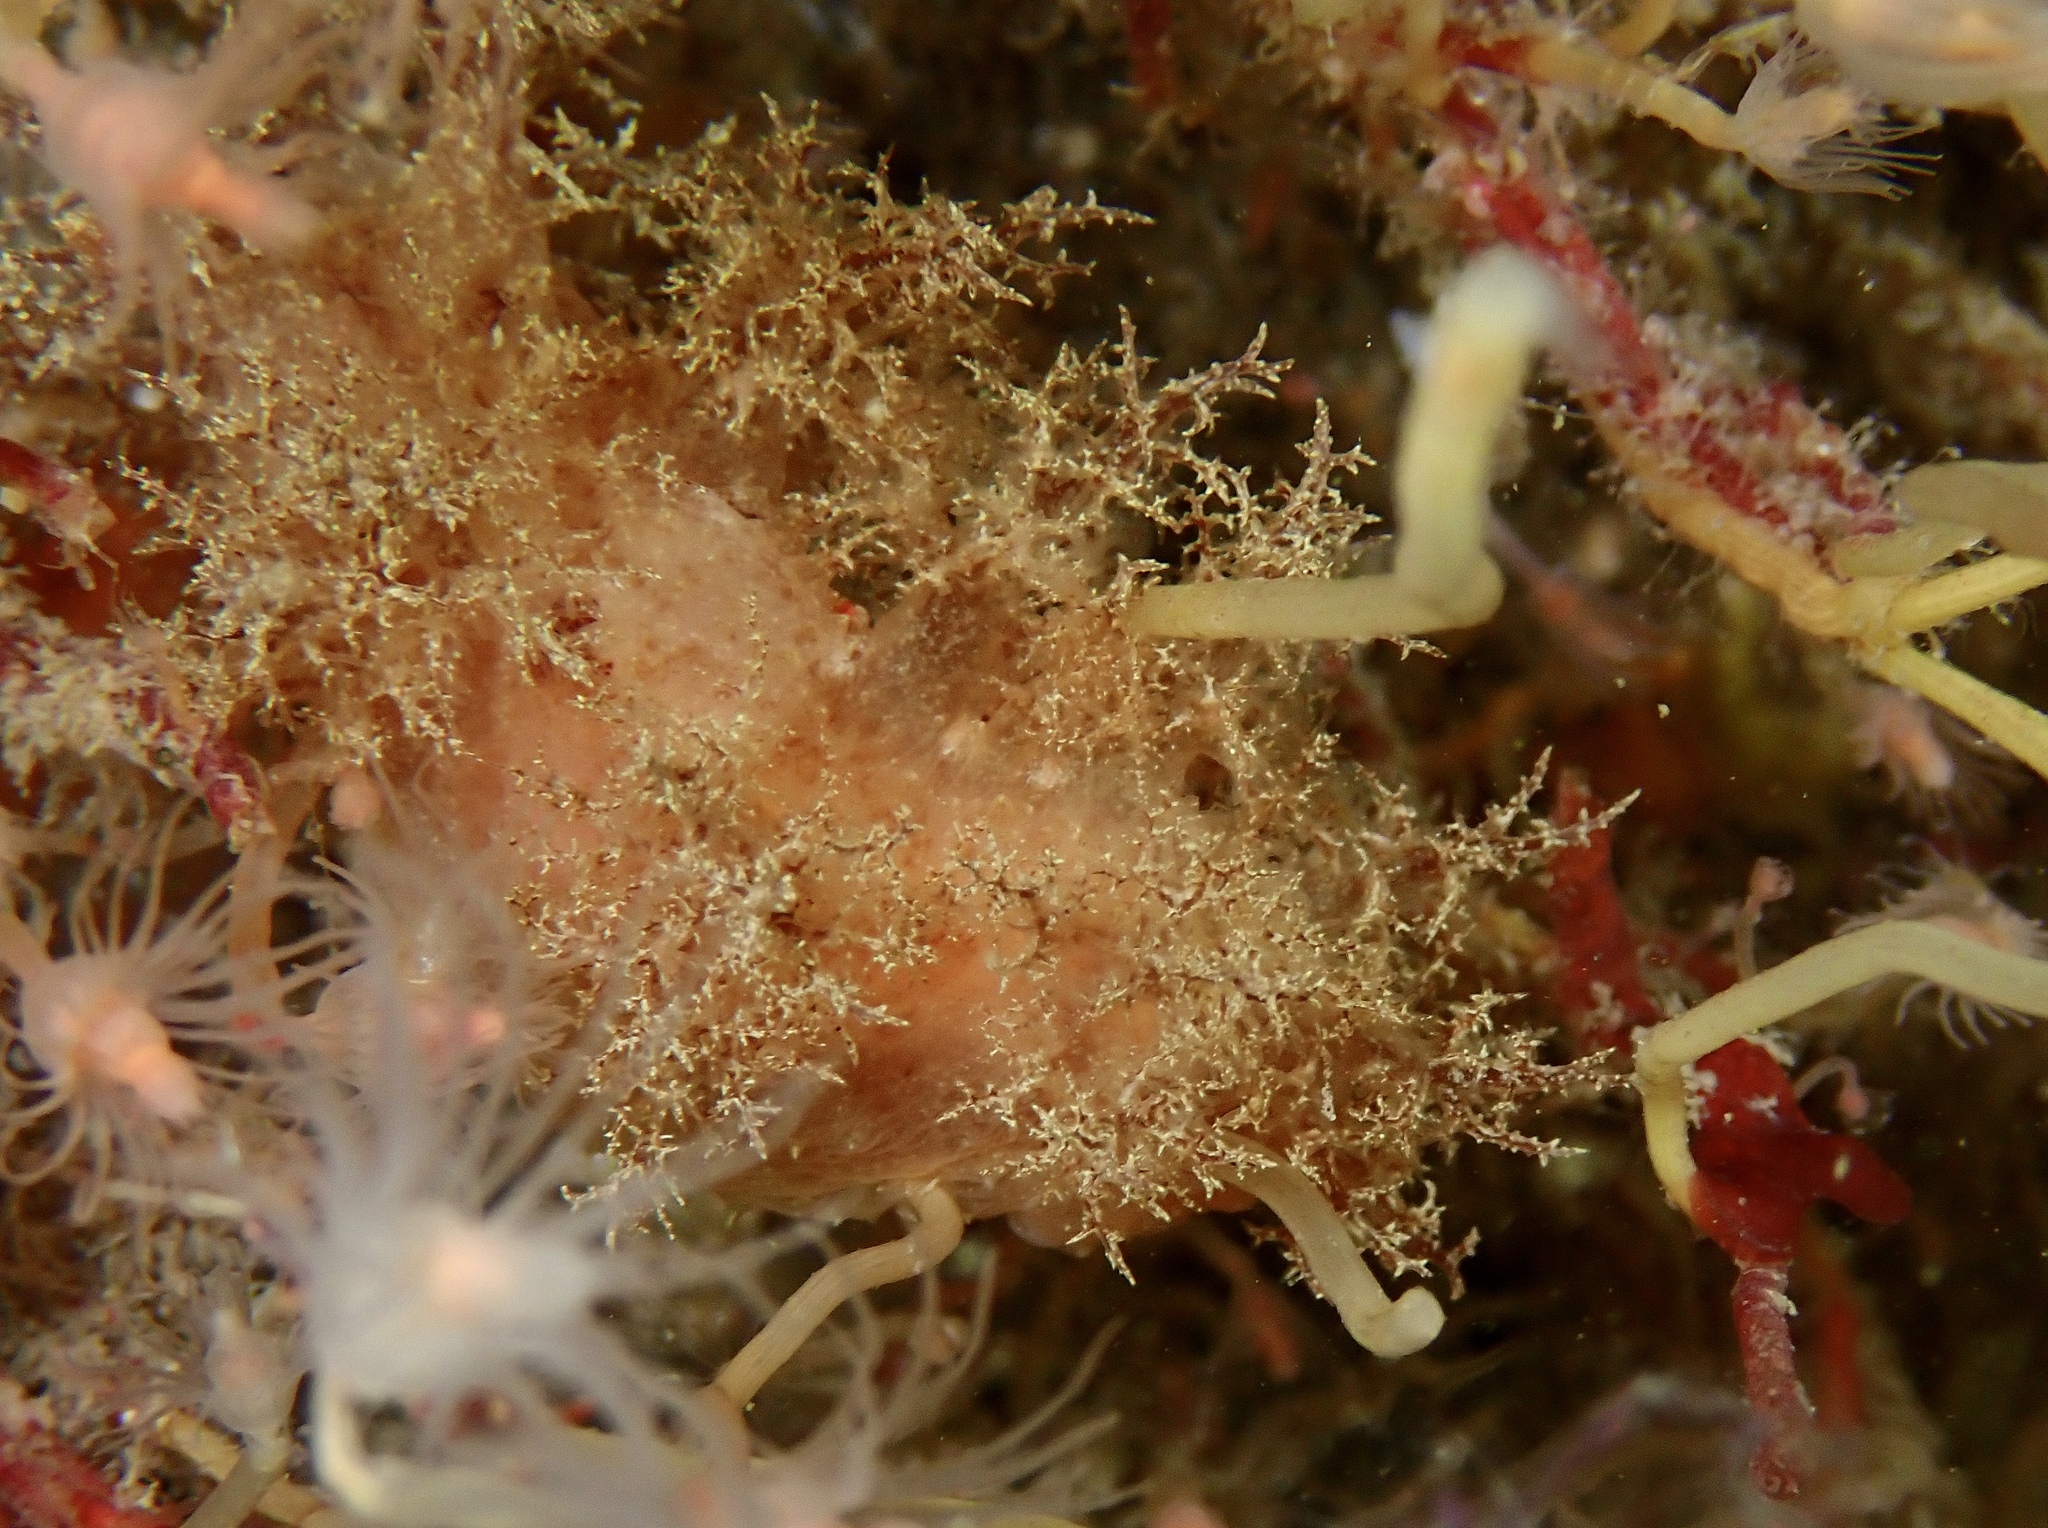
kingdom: Animalia
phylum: Mollusca
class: Gastropoda
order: Nudibranchia
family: Dendronotidae
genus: Dendronotus
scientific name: Dendronotus europaeus
